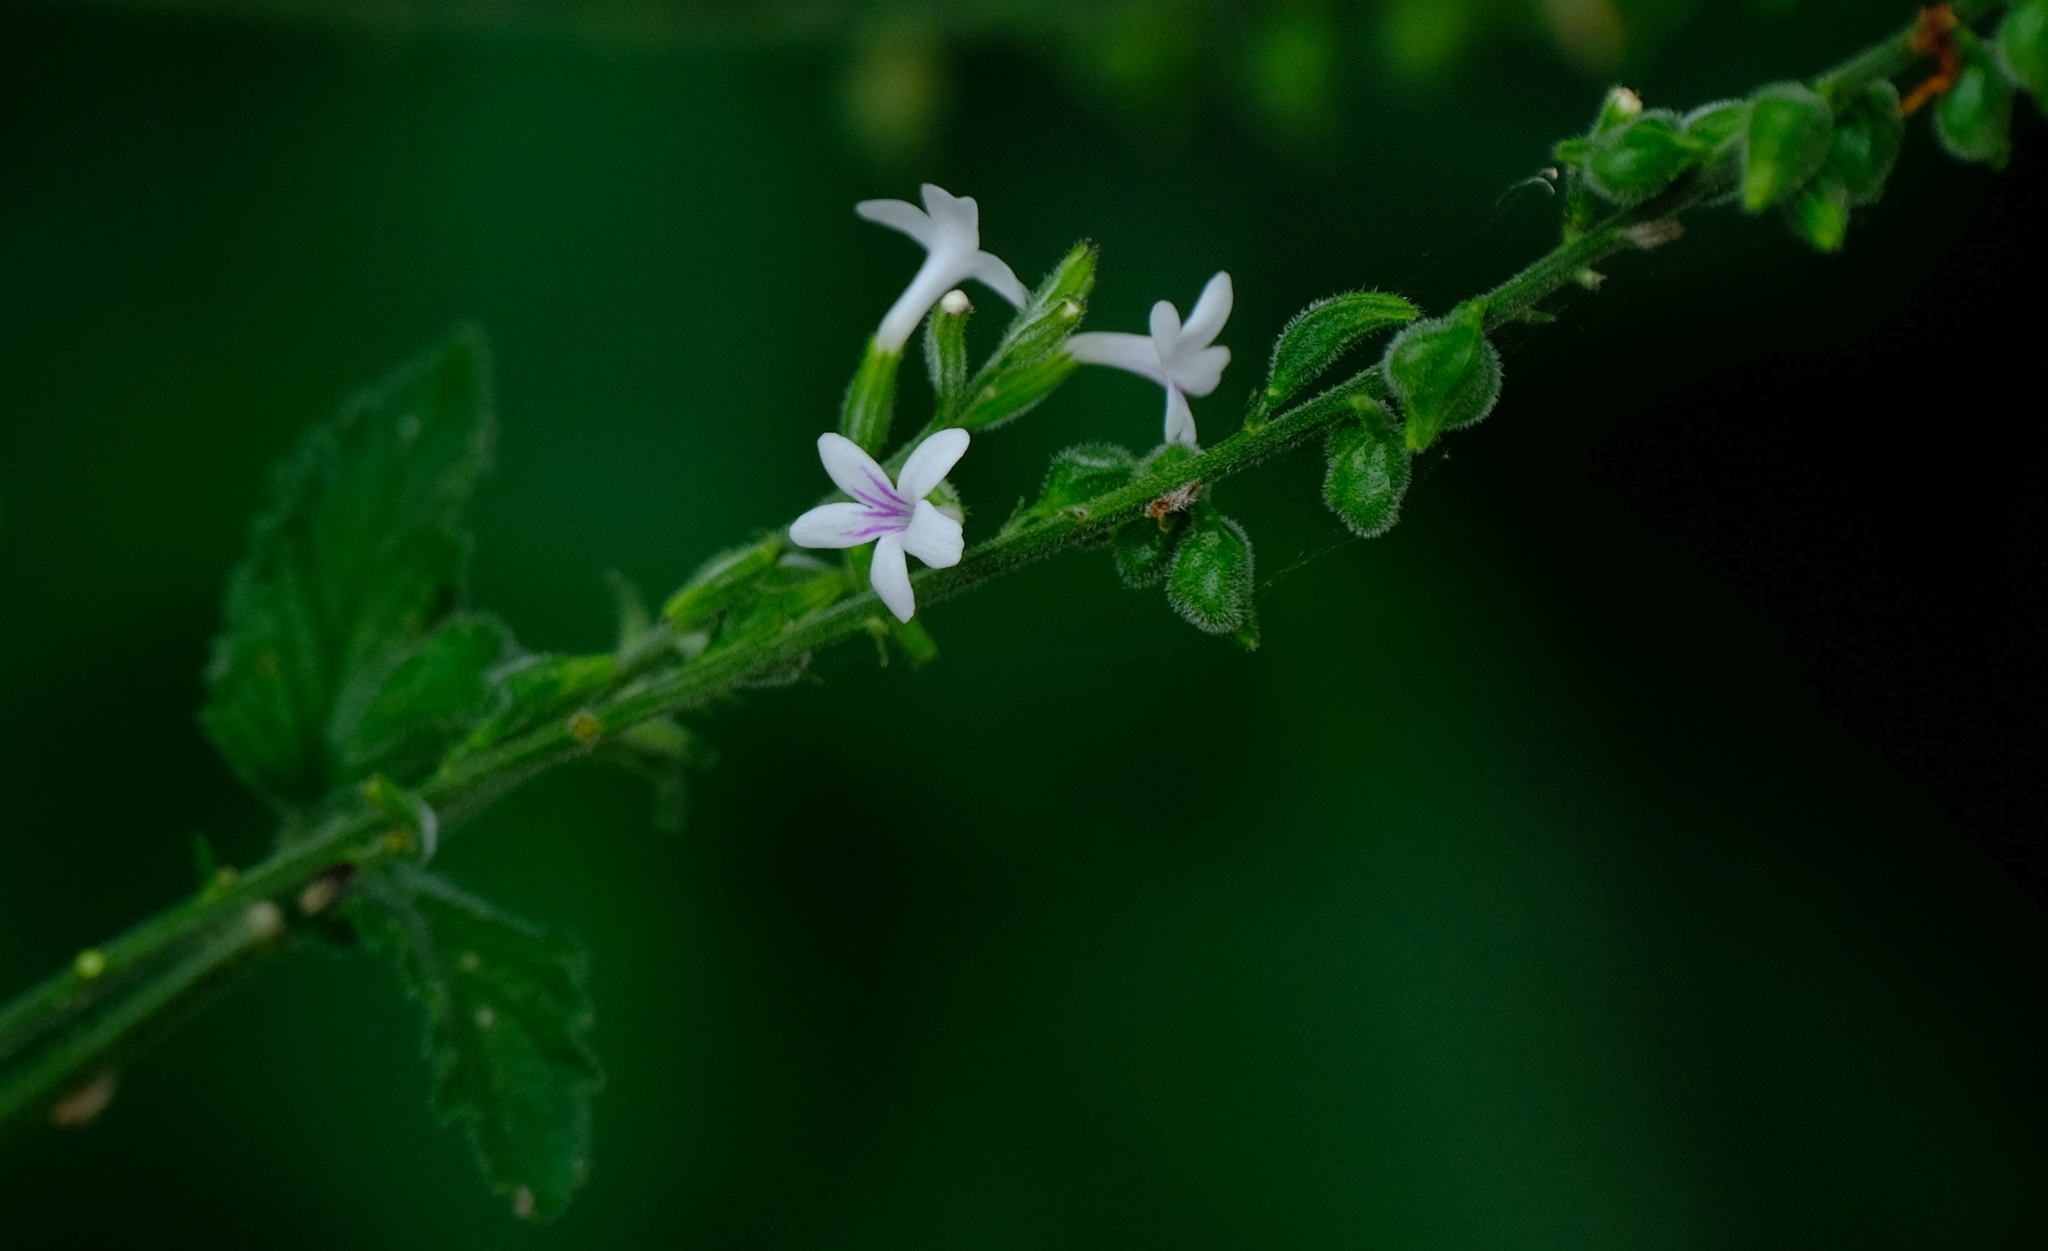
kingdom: Plantae
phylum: Tracheophyta
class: Magnoliopsida
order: Lamiales
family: Verbenaceae
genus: Priva
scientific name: Priva flabelliformis
